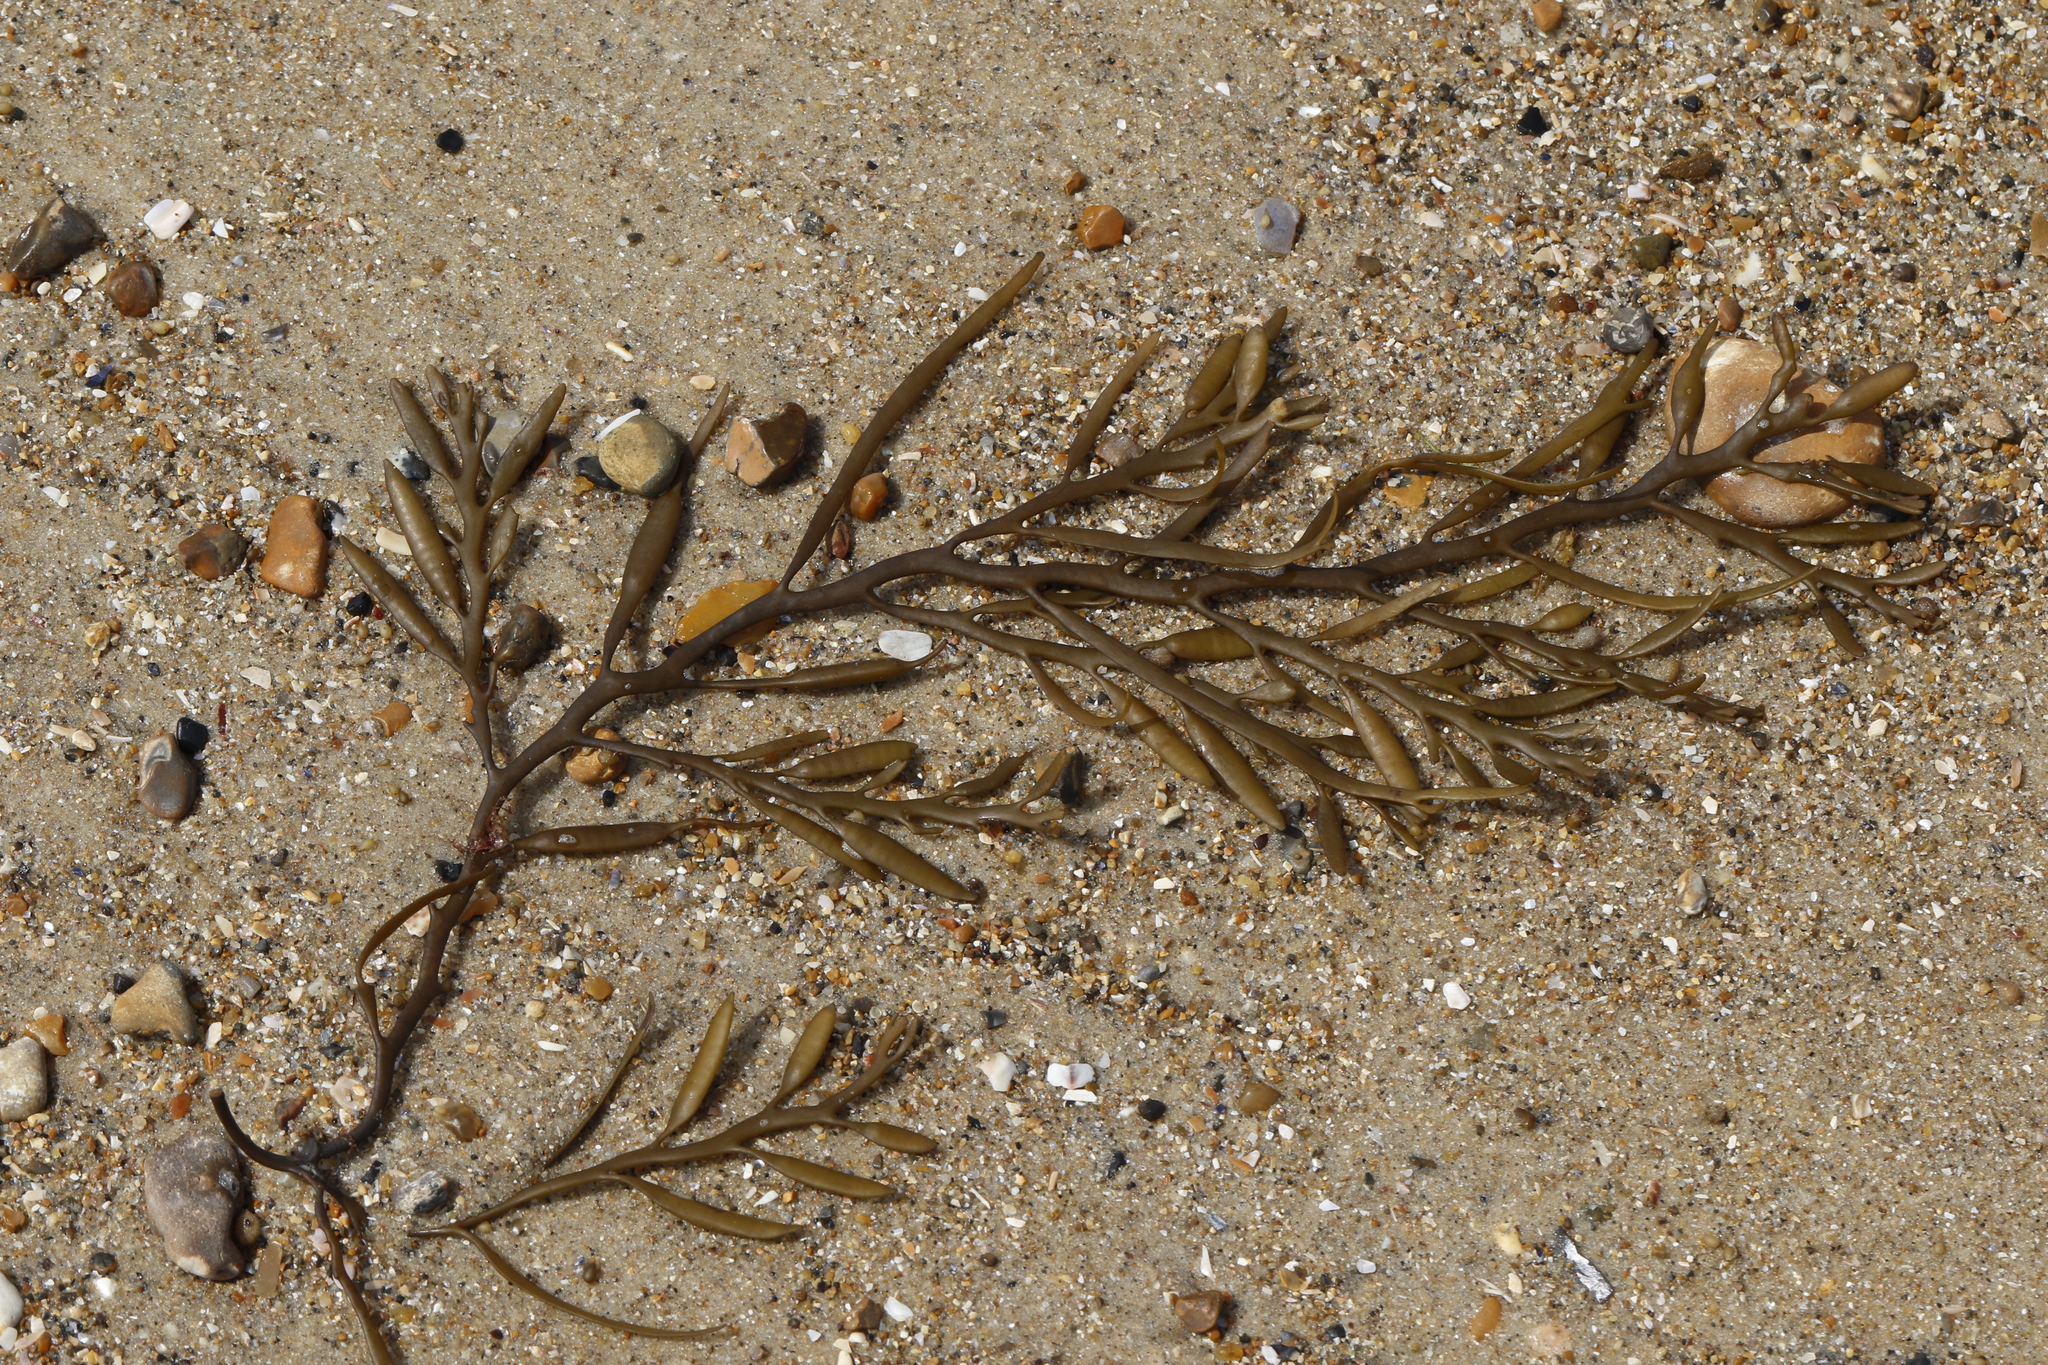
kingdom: Chromista
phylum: Ochrophyta
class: Phaeophyceae
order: Fucales
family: Sargassaceae
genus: Halidrys
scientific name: Halidrys siliquosa
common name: Sea oak
